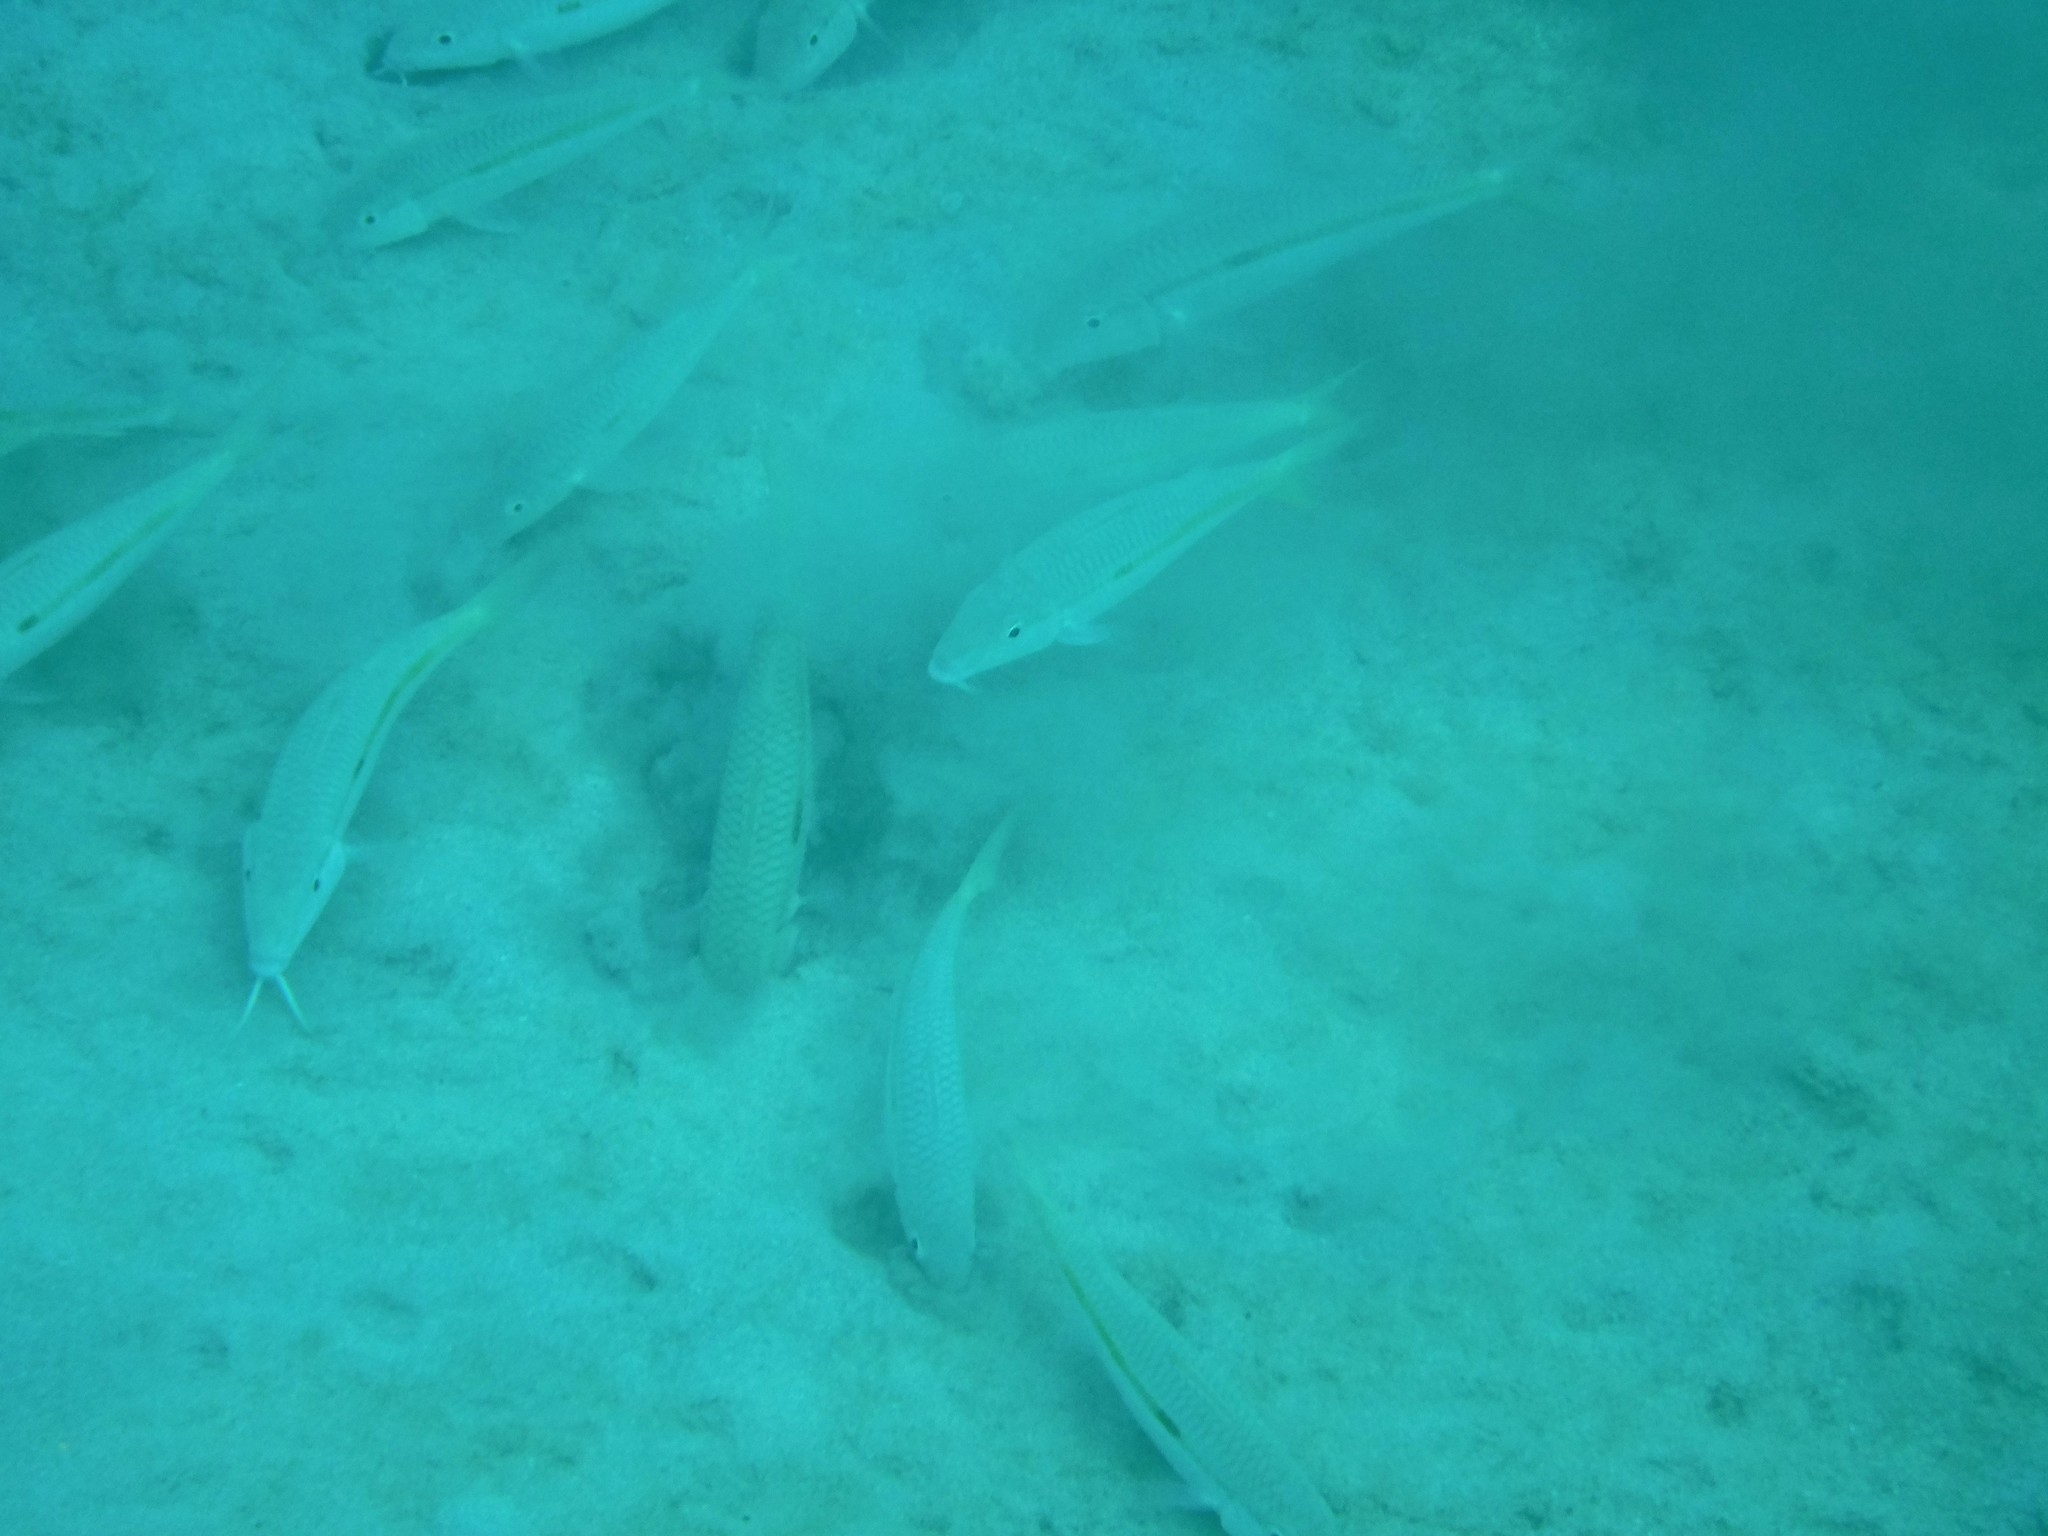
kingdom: Animalia
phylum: Chordata
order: Perciformes
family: Mullidae
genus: Mulloidichthys
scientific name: Mulloidichthys flavolineatus
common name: Yellowstripe goatfish
